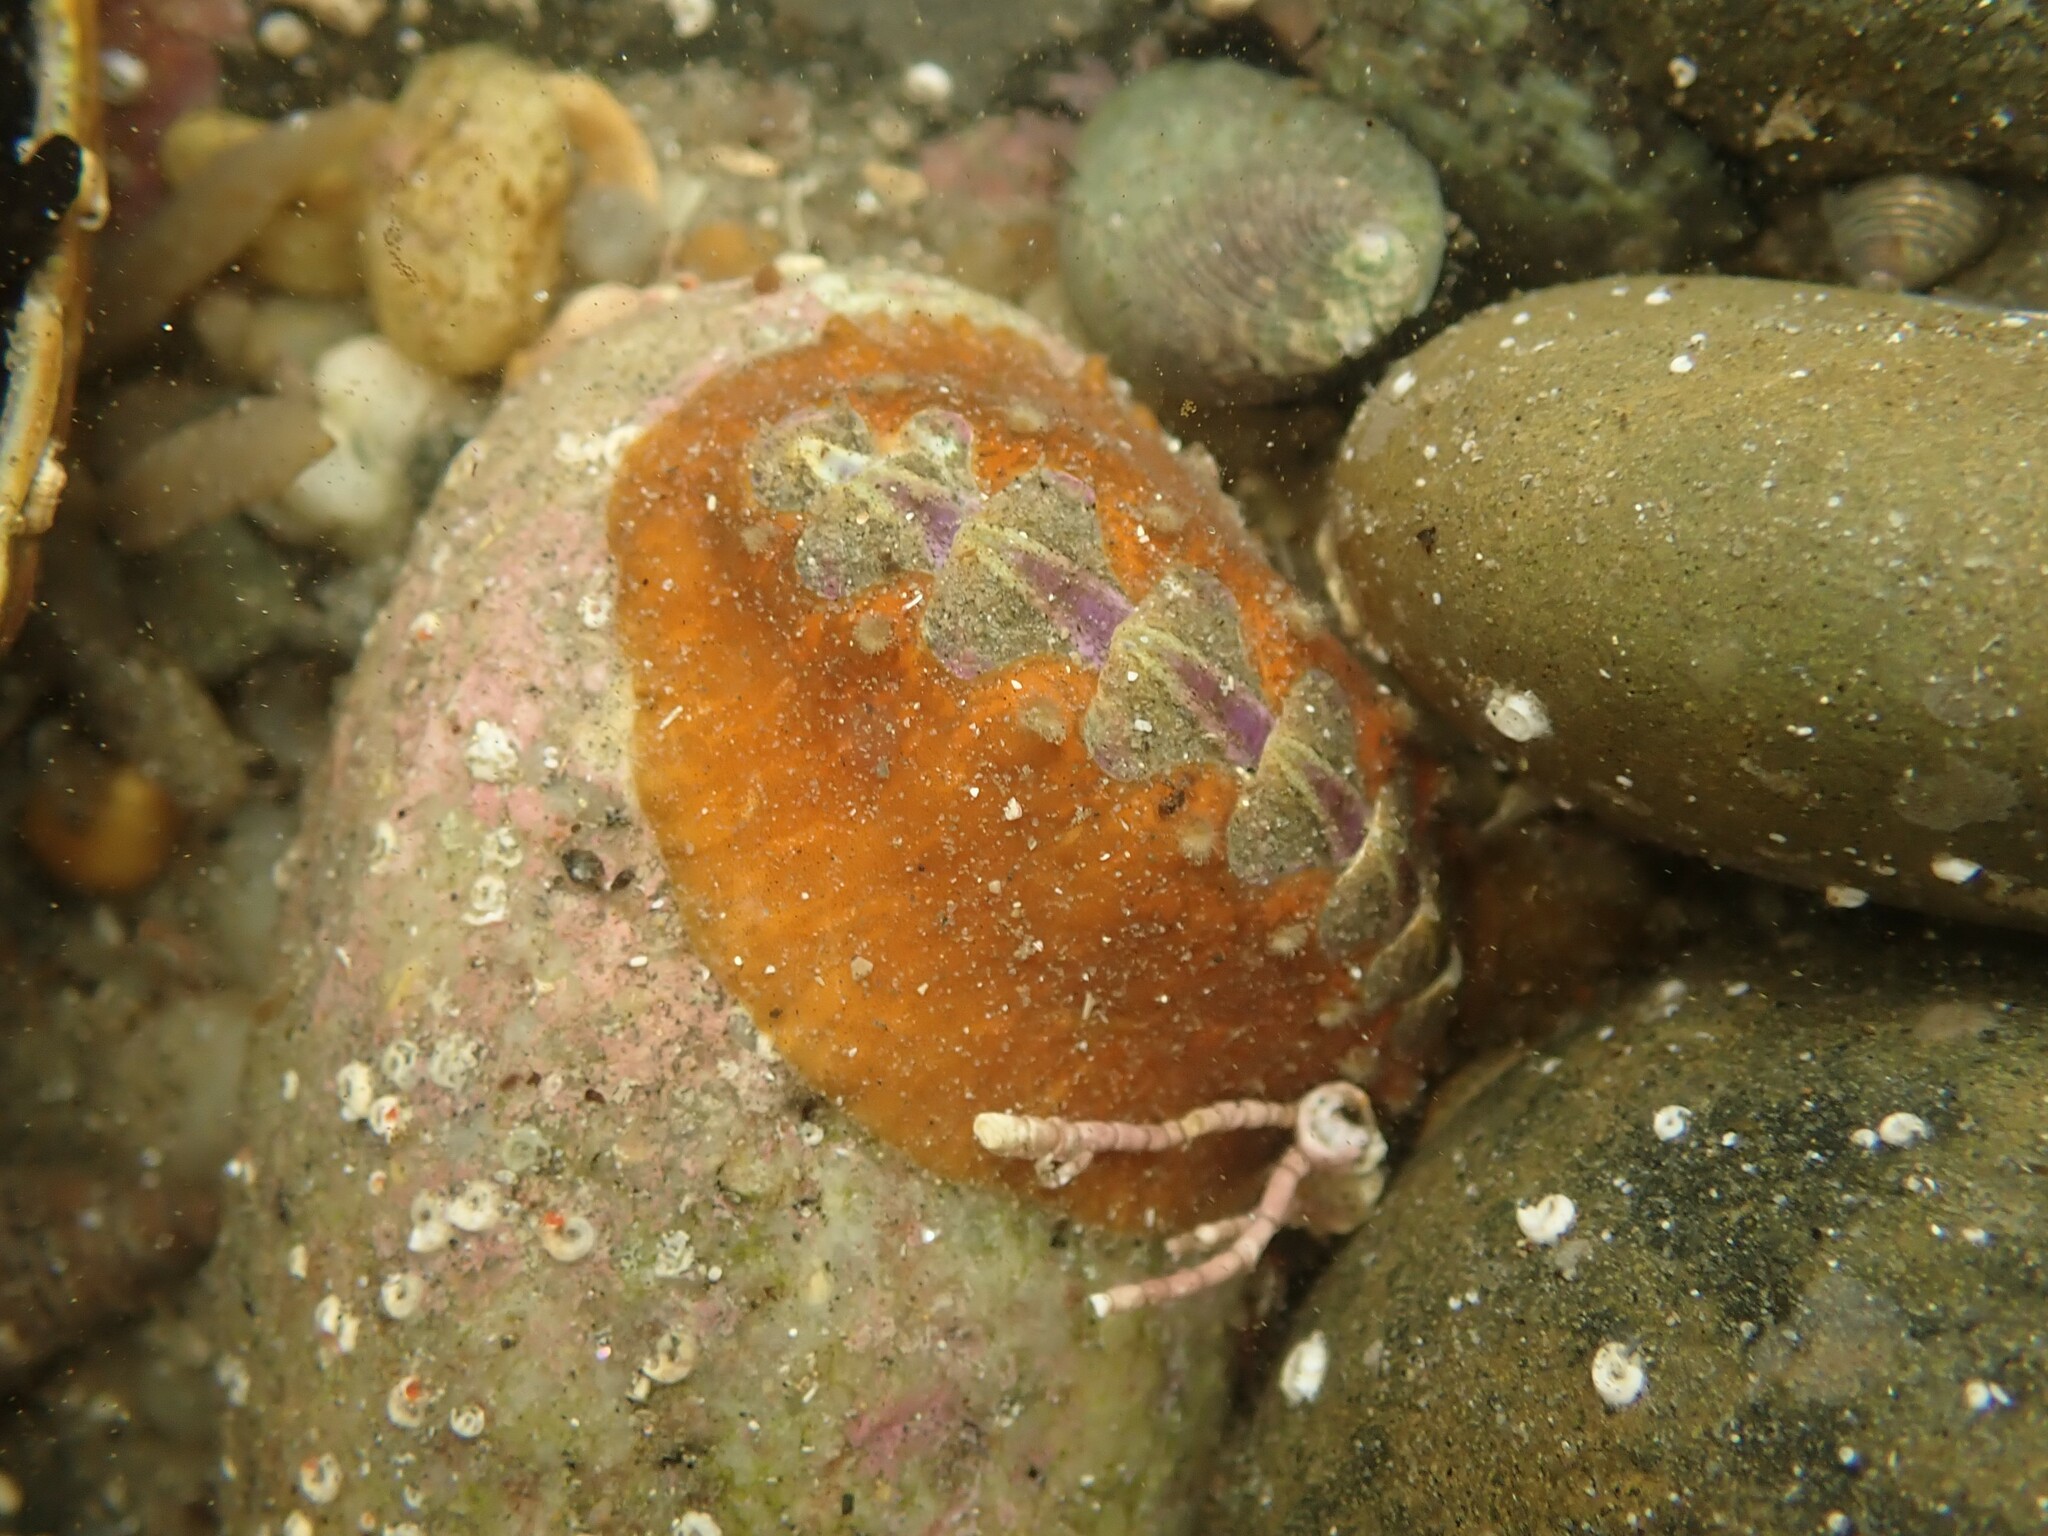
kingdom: Animalia
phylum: Mollusca
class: Polyplacophora
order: Chitonida
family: Acanthochitonidae
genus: Notoplax
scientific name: Notoplax violacea
